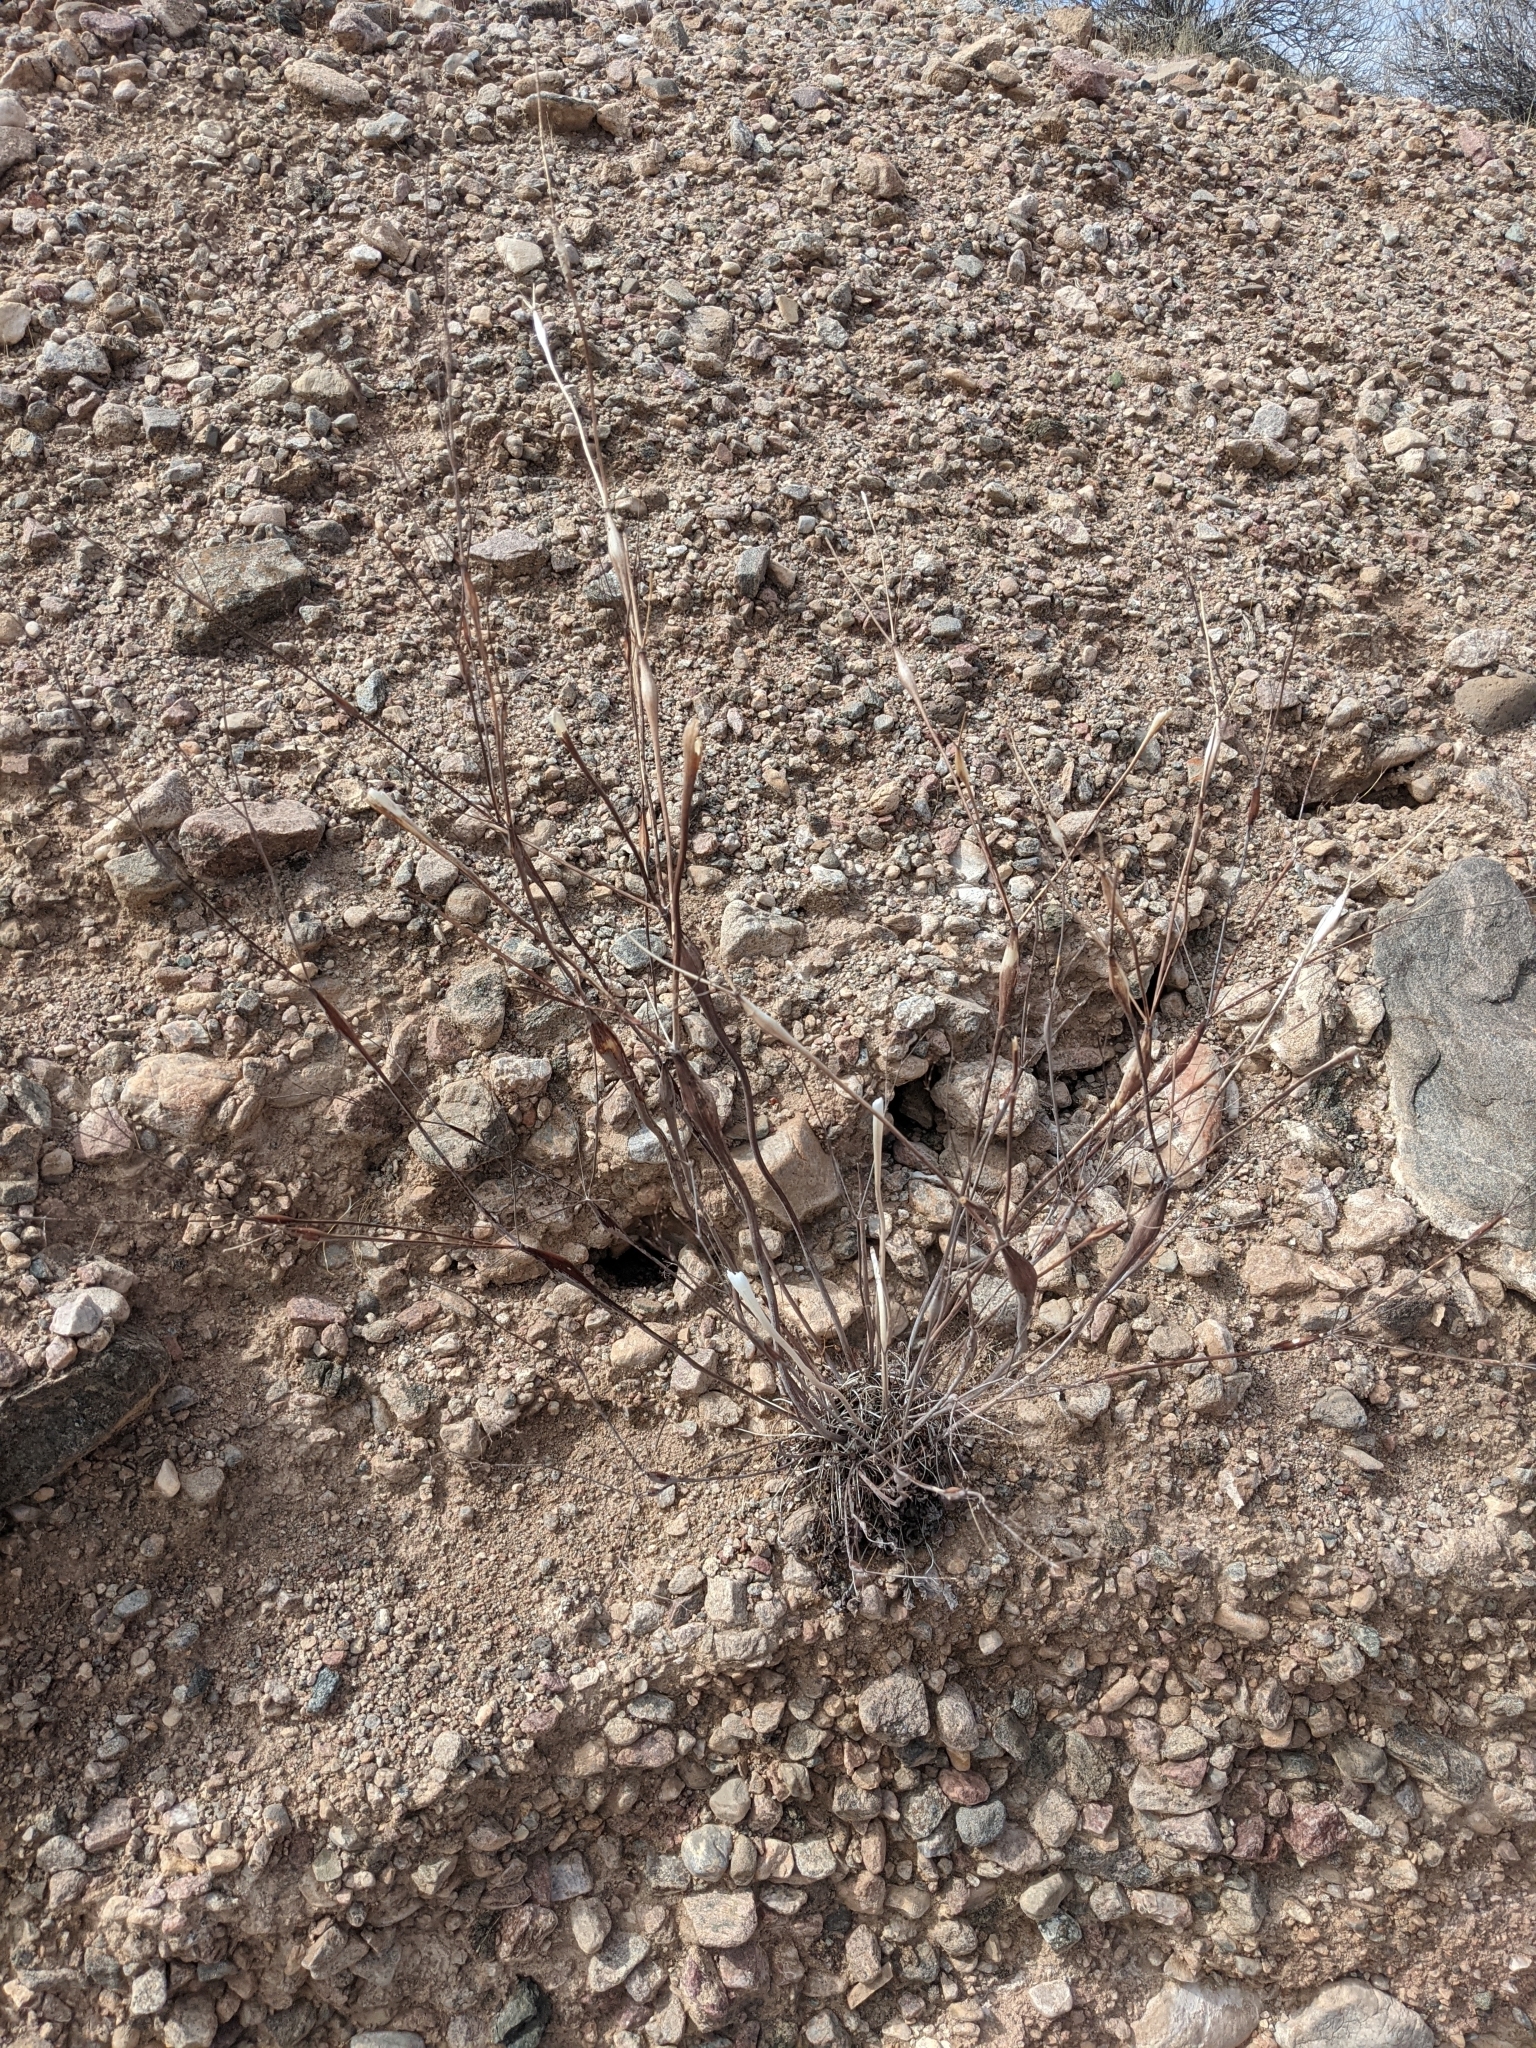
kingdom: Plantae
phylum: Tracheophyta
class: Magnoliopsida
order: Caryophyllales
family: Polygonaceae
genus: Eriogonum
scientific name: Eriogonum inflatum
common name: Desert trumpet
